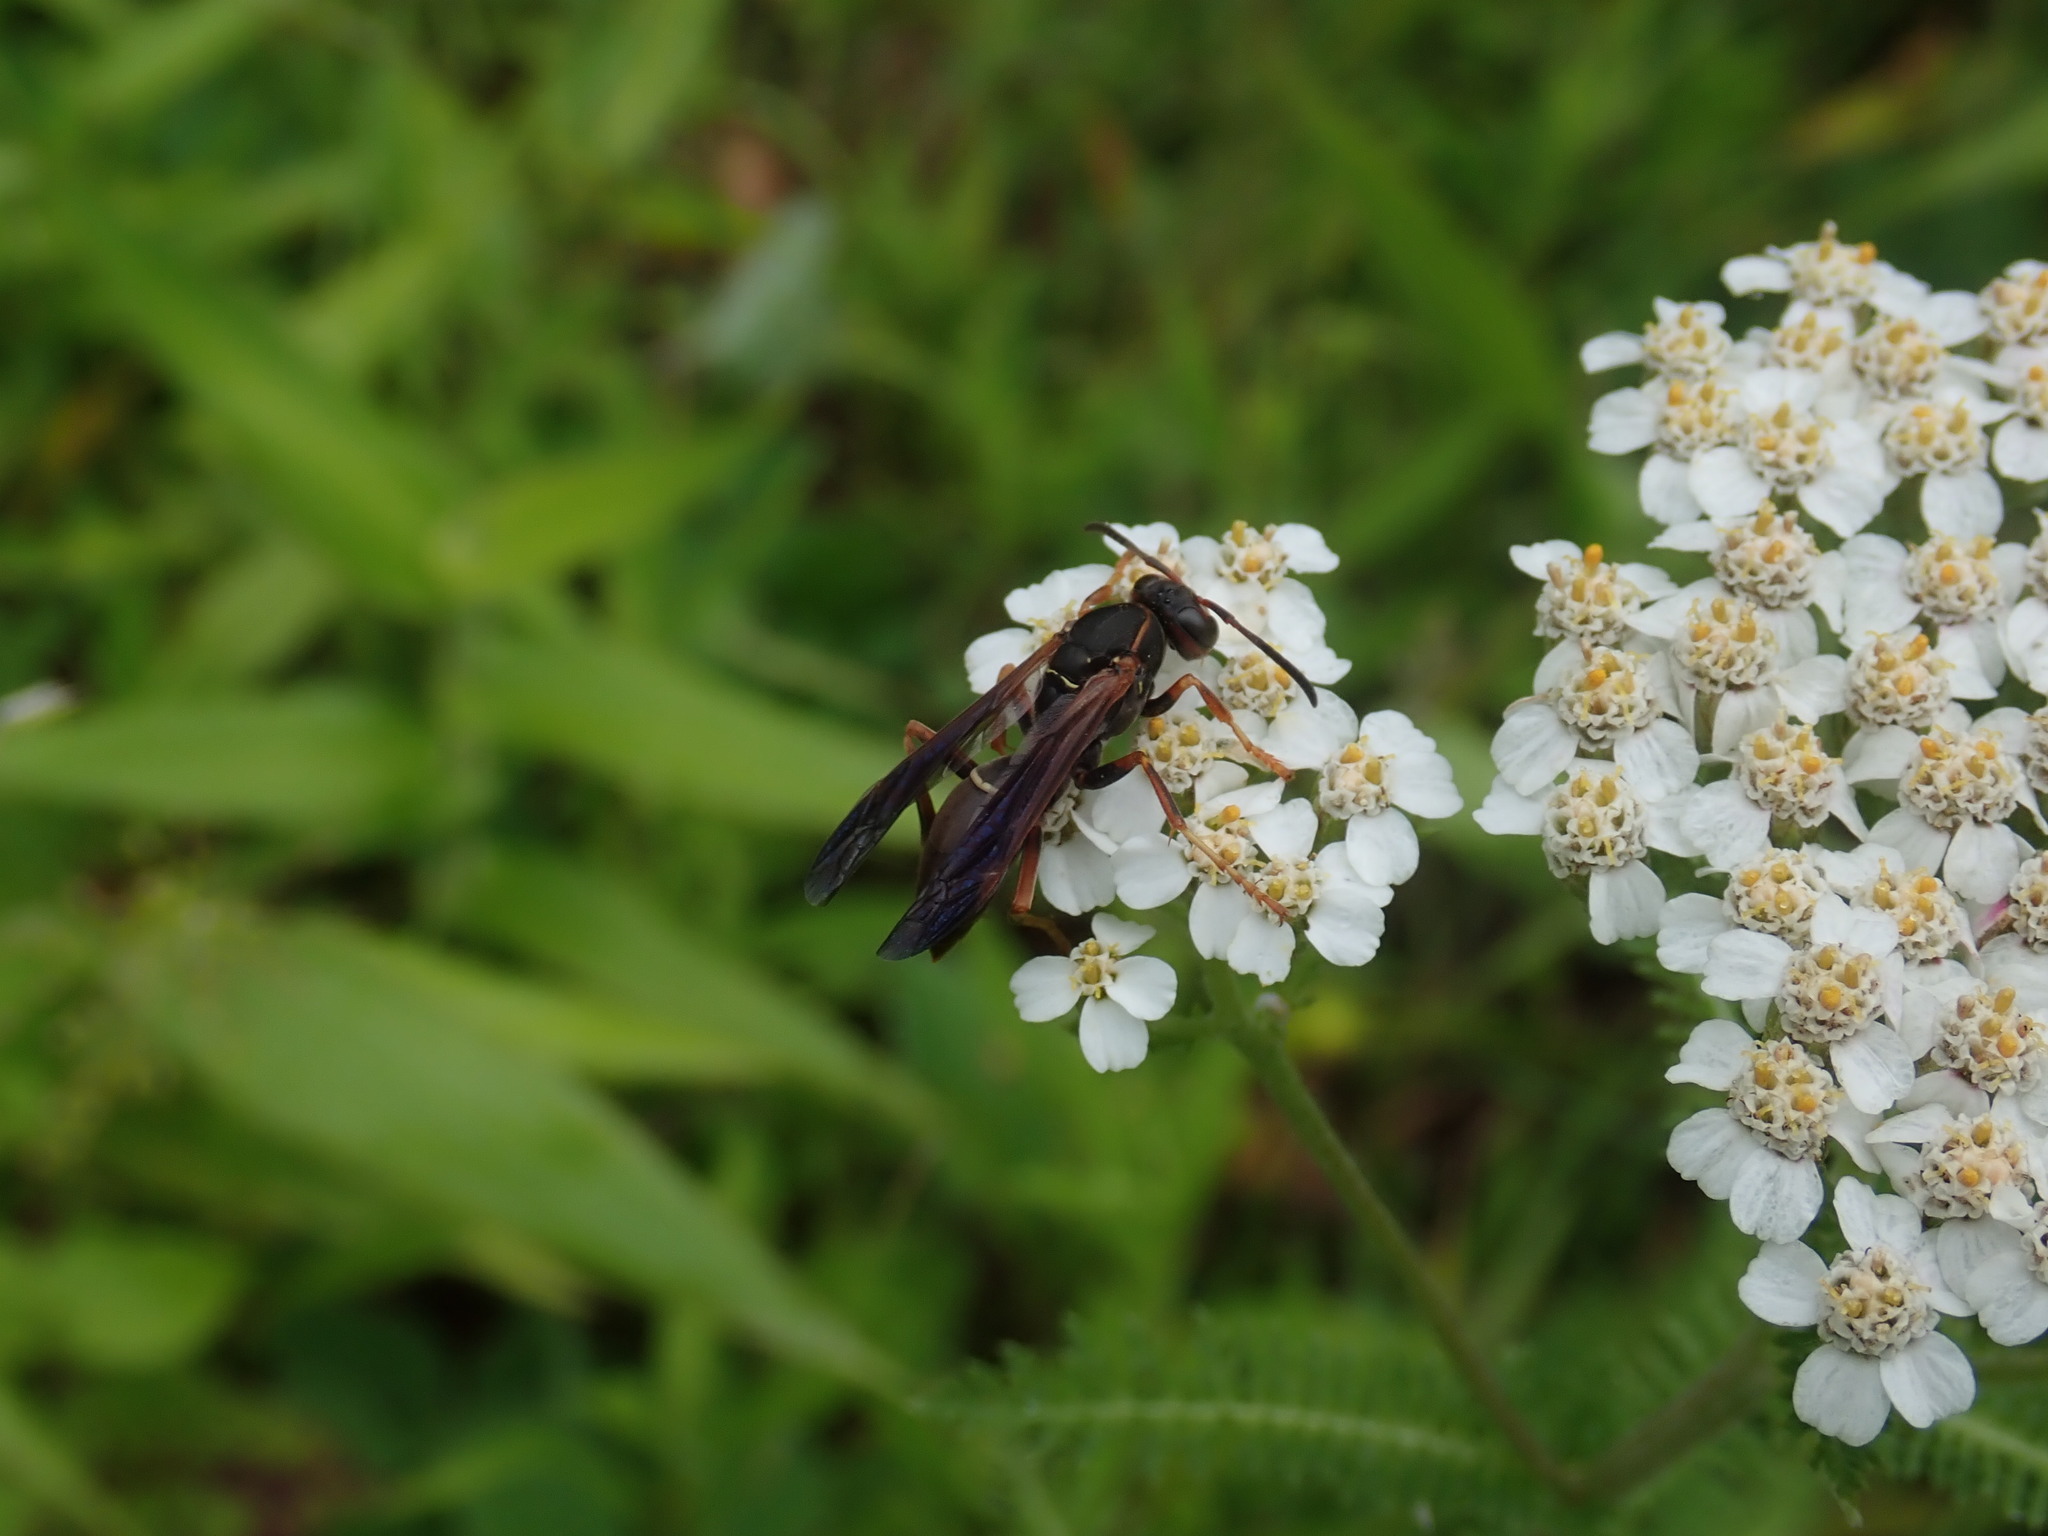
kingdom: Animalia
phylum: Arthropoda
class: Insecta
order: Hymenoptera
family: Eumenidae
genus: Polistes
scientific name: Polistes fuscatus
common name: Dark paper wasp
